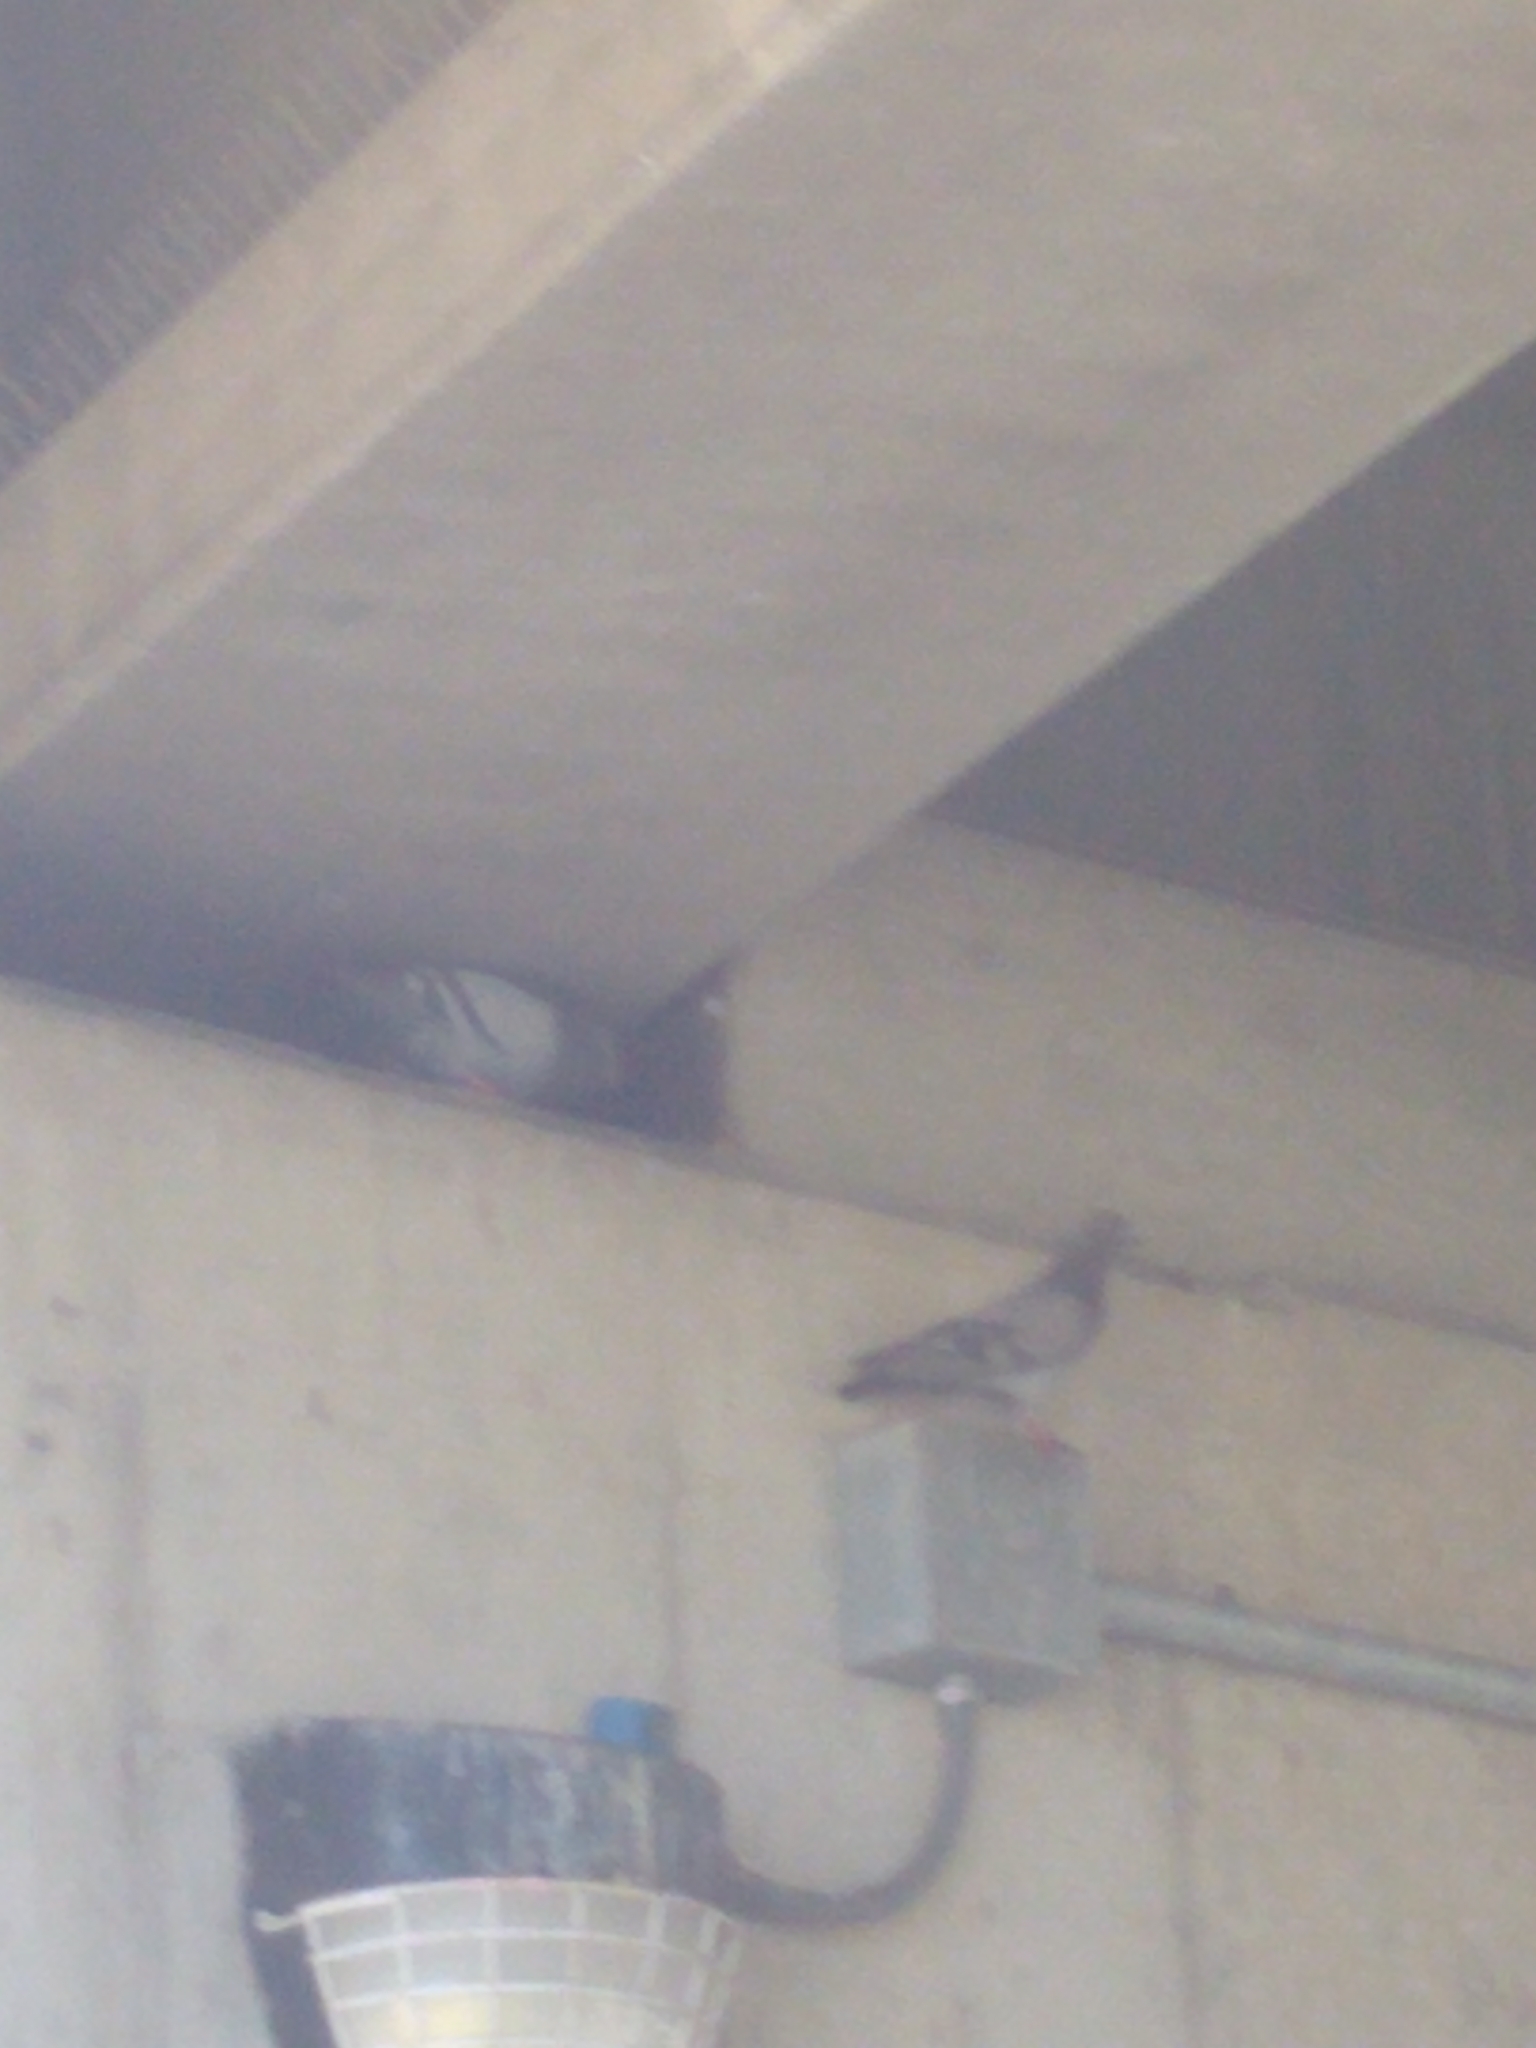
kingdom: Animalia
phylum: Chordata
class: Aves
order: Columbiformes
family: Columbidae
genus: Columba
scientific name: Columba livia
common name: Rock pigeon
